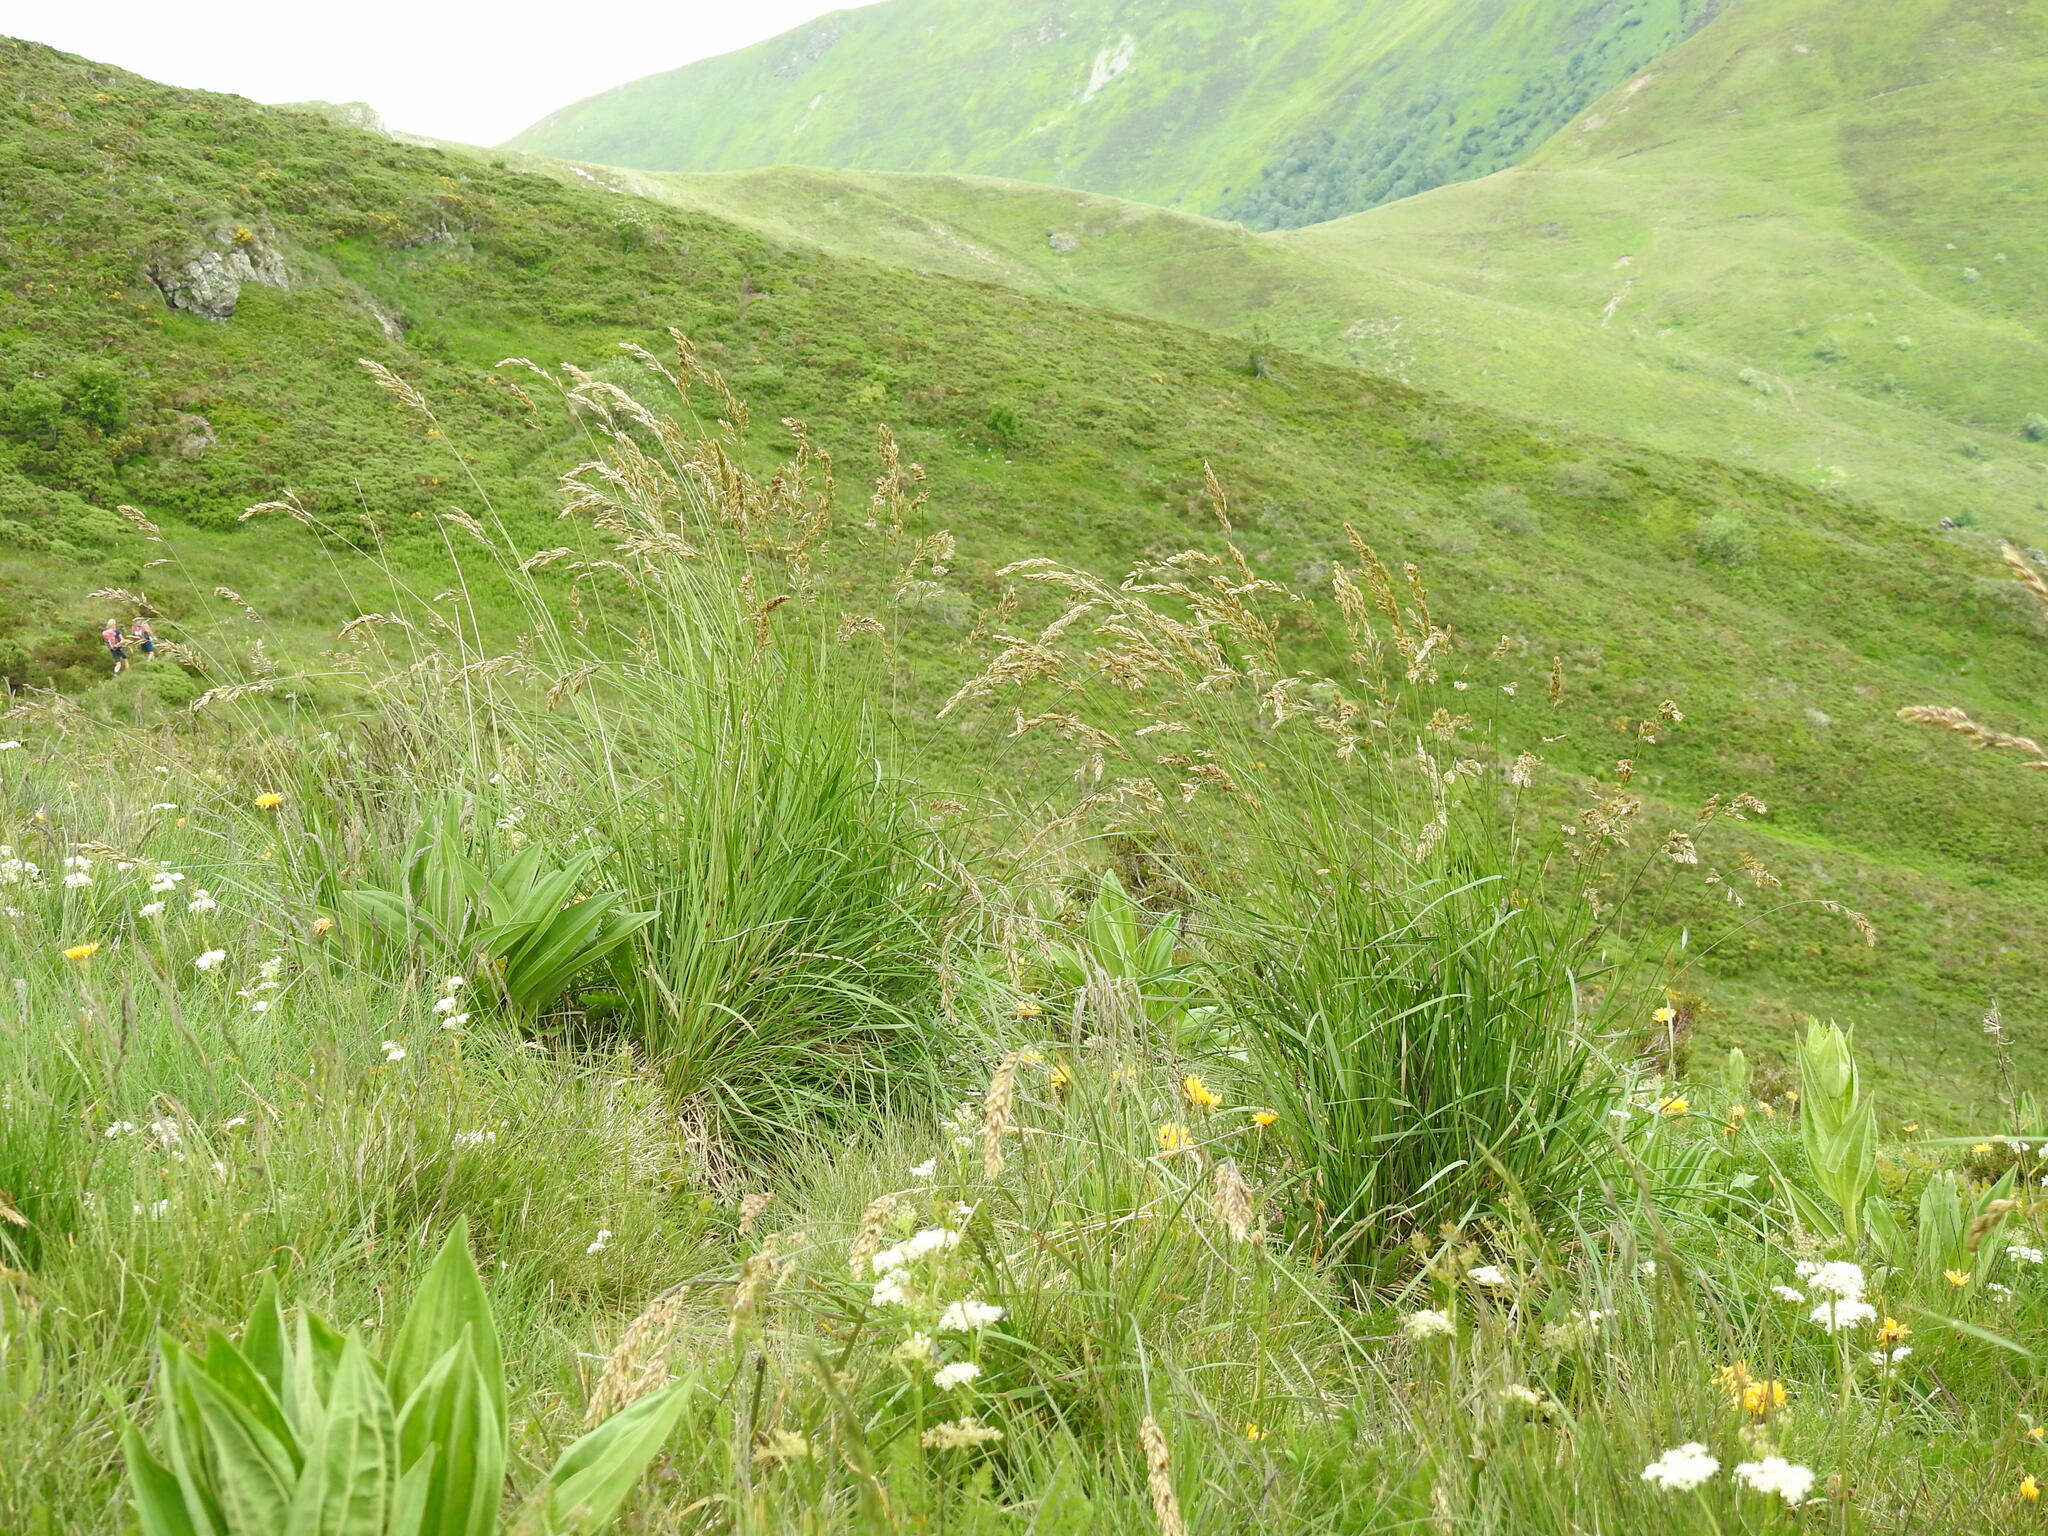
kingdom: Plantae
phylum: Tracheophyta
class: Liliopsida
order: Poales
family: Poaceae
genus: Patzkea
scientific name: Patzkea paniculata
